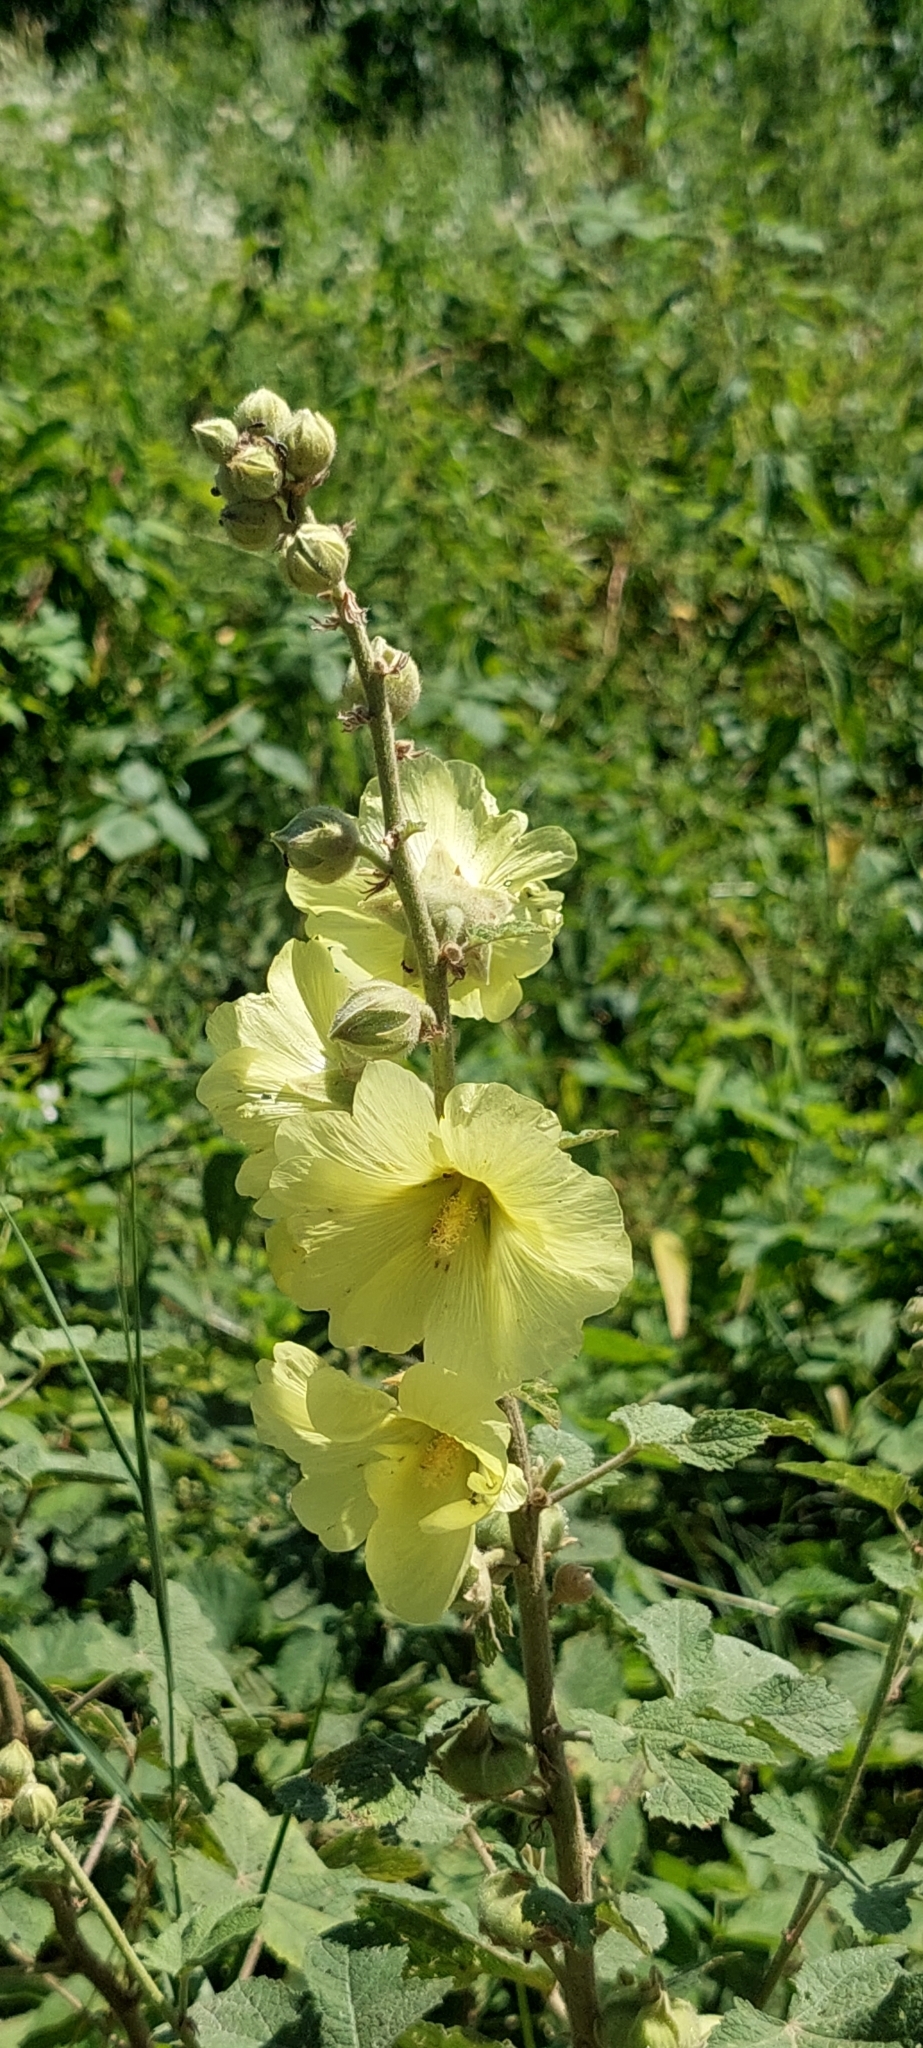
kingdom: Plantae
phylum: Tracheophyta
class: Magnoliopsida
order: Malvales
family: Malvaceae
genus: Alcea
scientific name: Alcea rugosa
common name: Russian hollyhock
